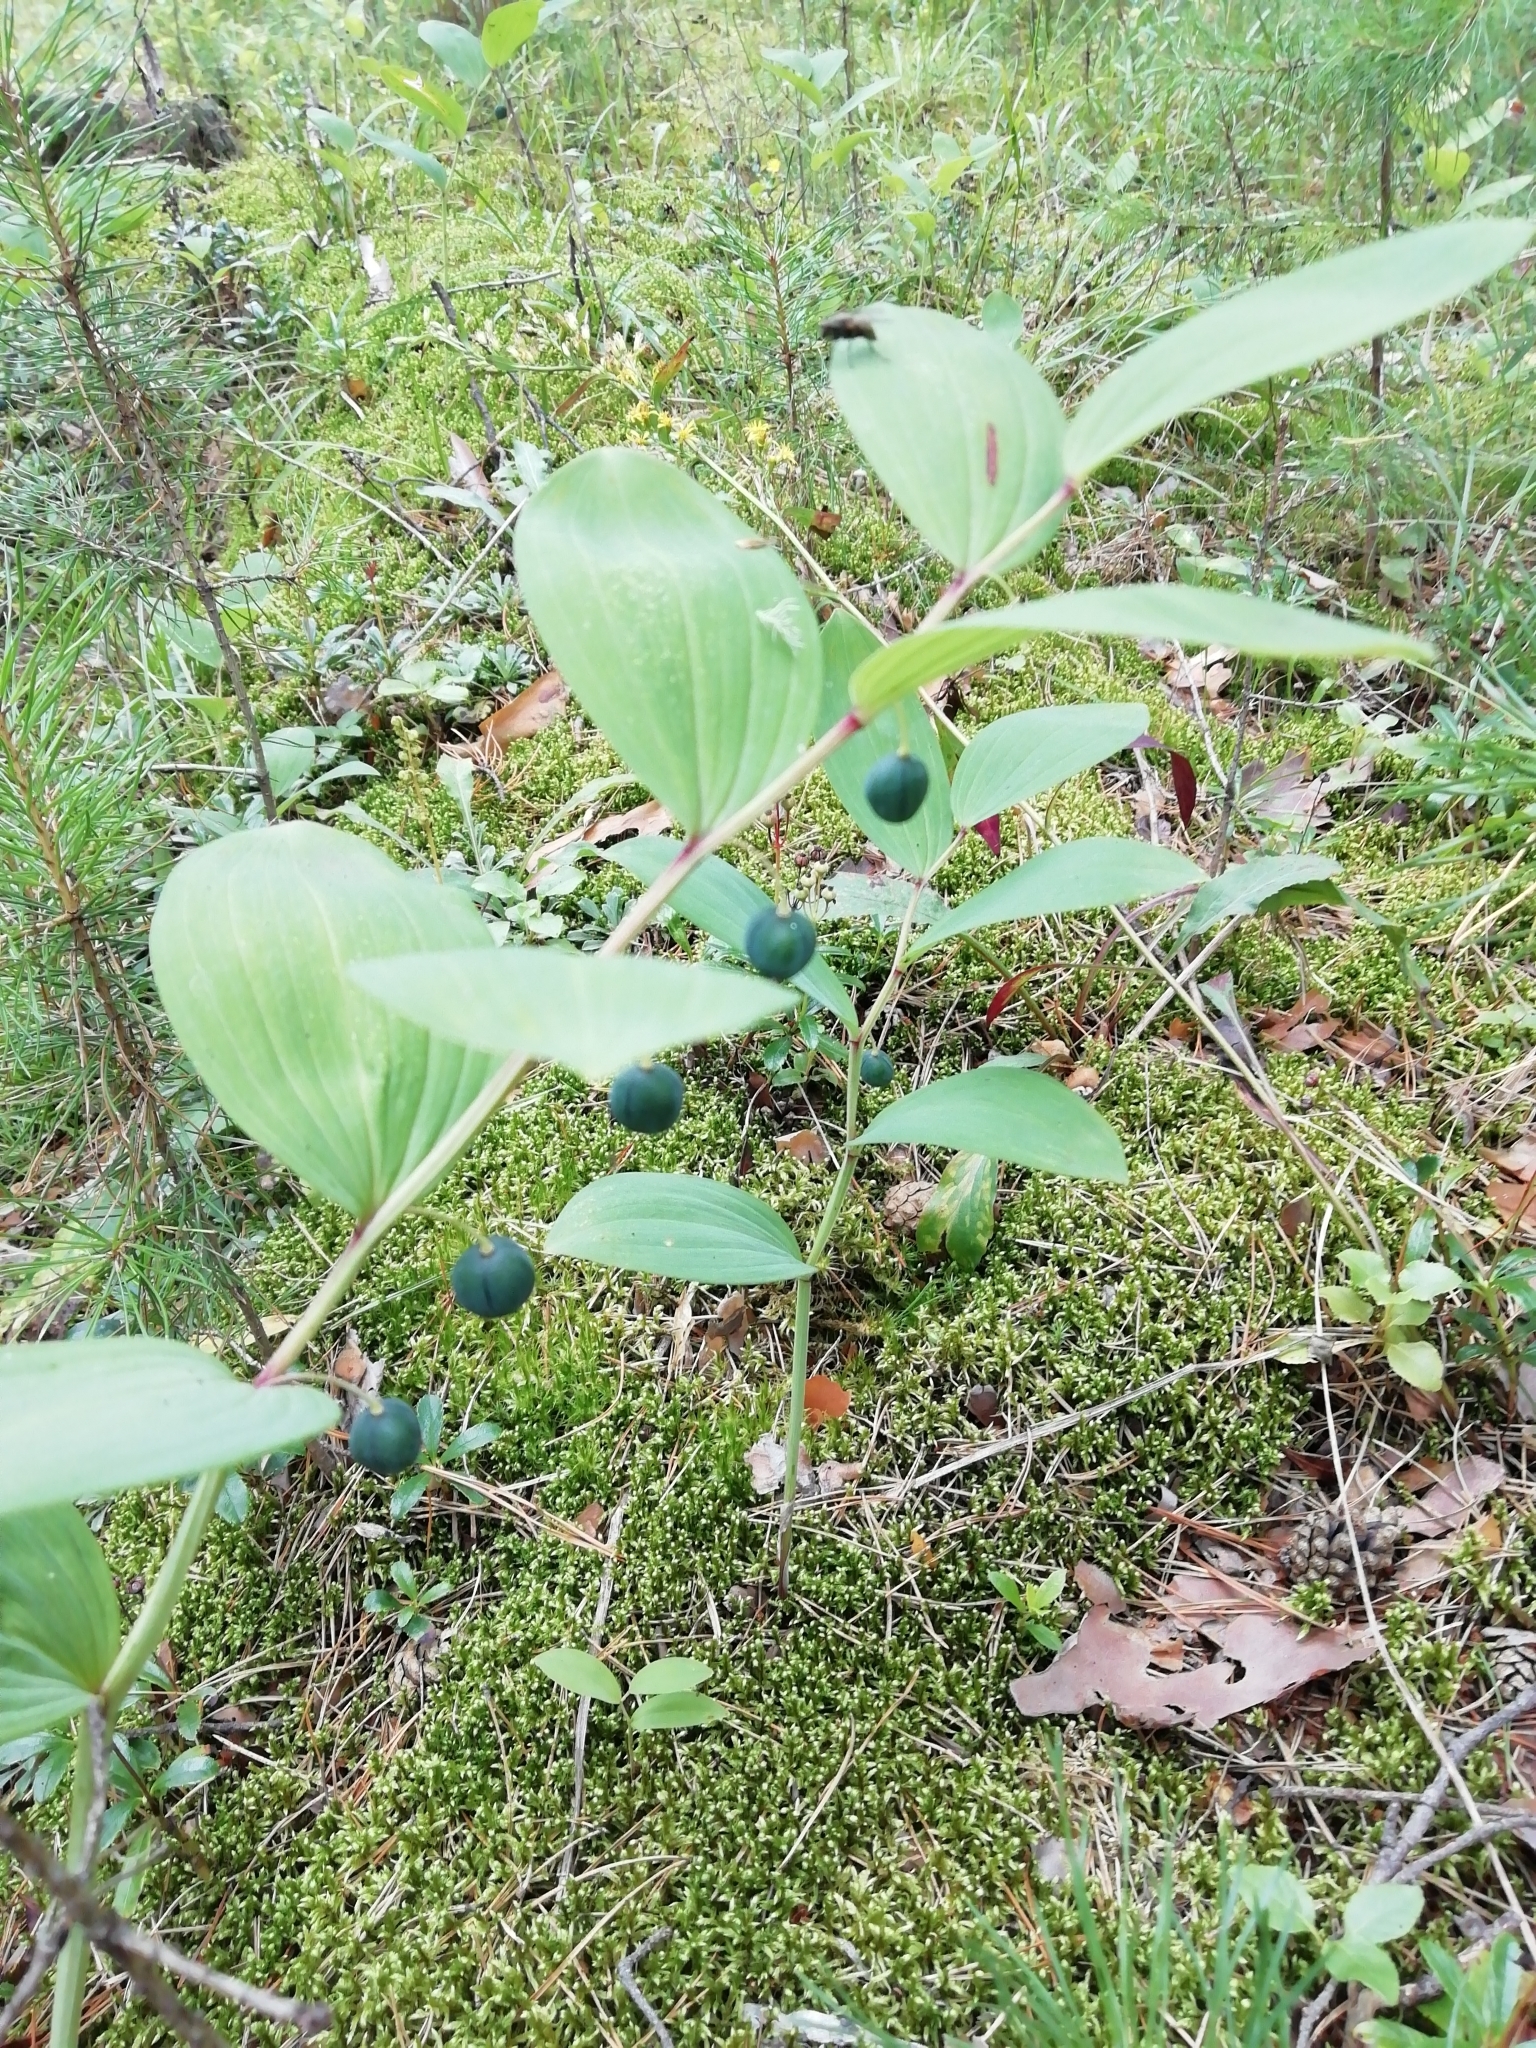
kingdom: Plantae
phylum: Tracheophyta
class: Liliopsida
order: Asparagales
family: Asparagaceae
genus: Polygonatum
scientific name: Polygonatum odoratum
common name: Angular solomon's-seal
